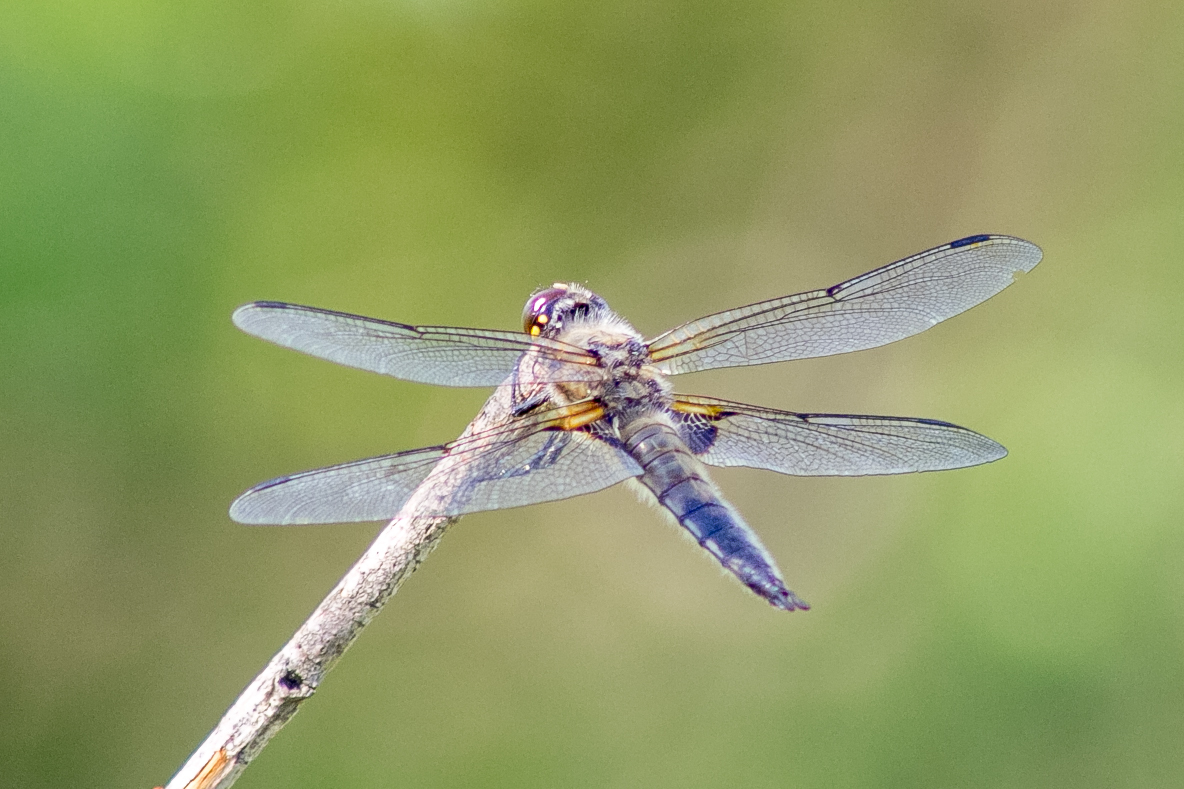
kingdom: Animalia
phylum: Arthropoda
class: Insecta
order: Odonata
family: Libellulidae
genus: Libellula
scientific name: Libellula quadrimaculata
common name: Four-spotted chaser
